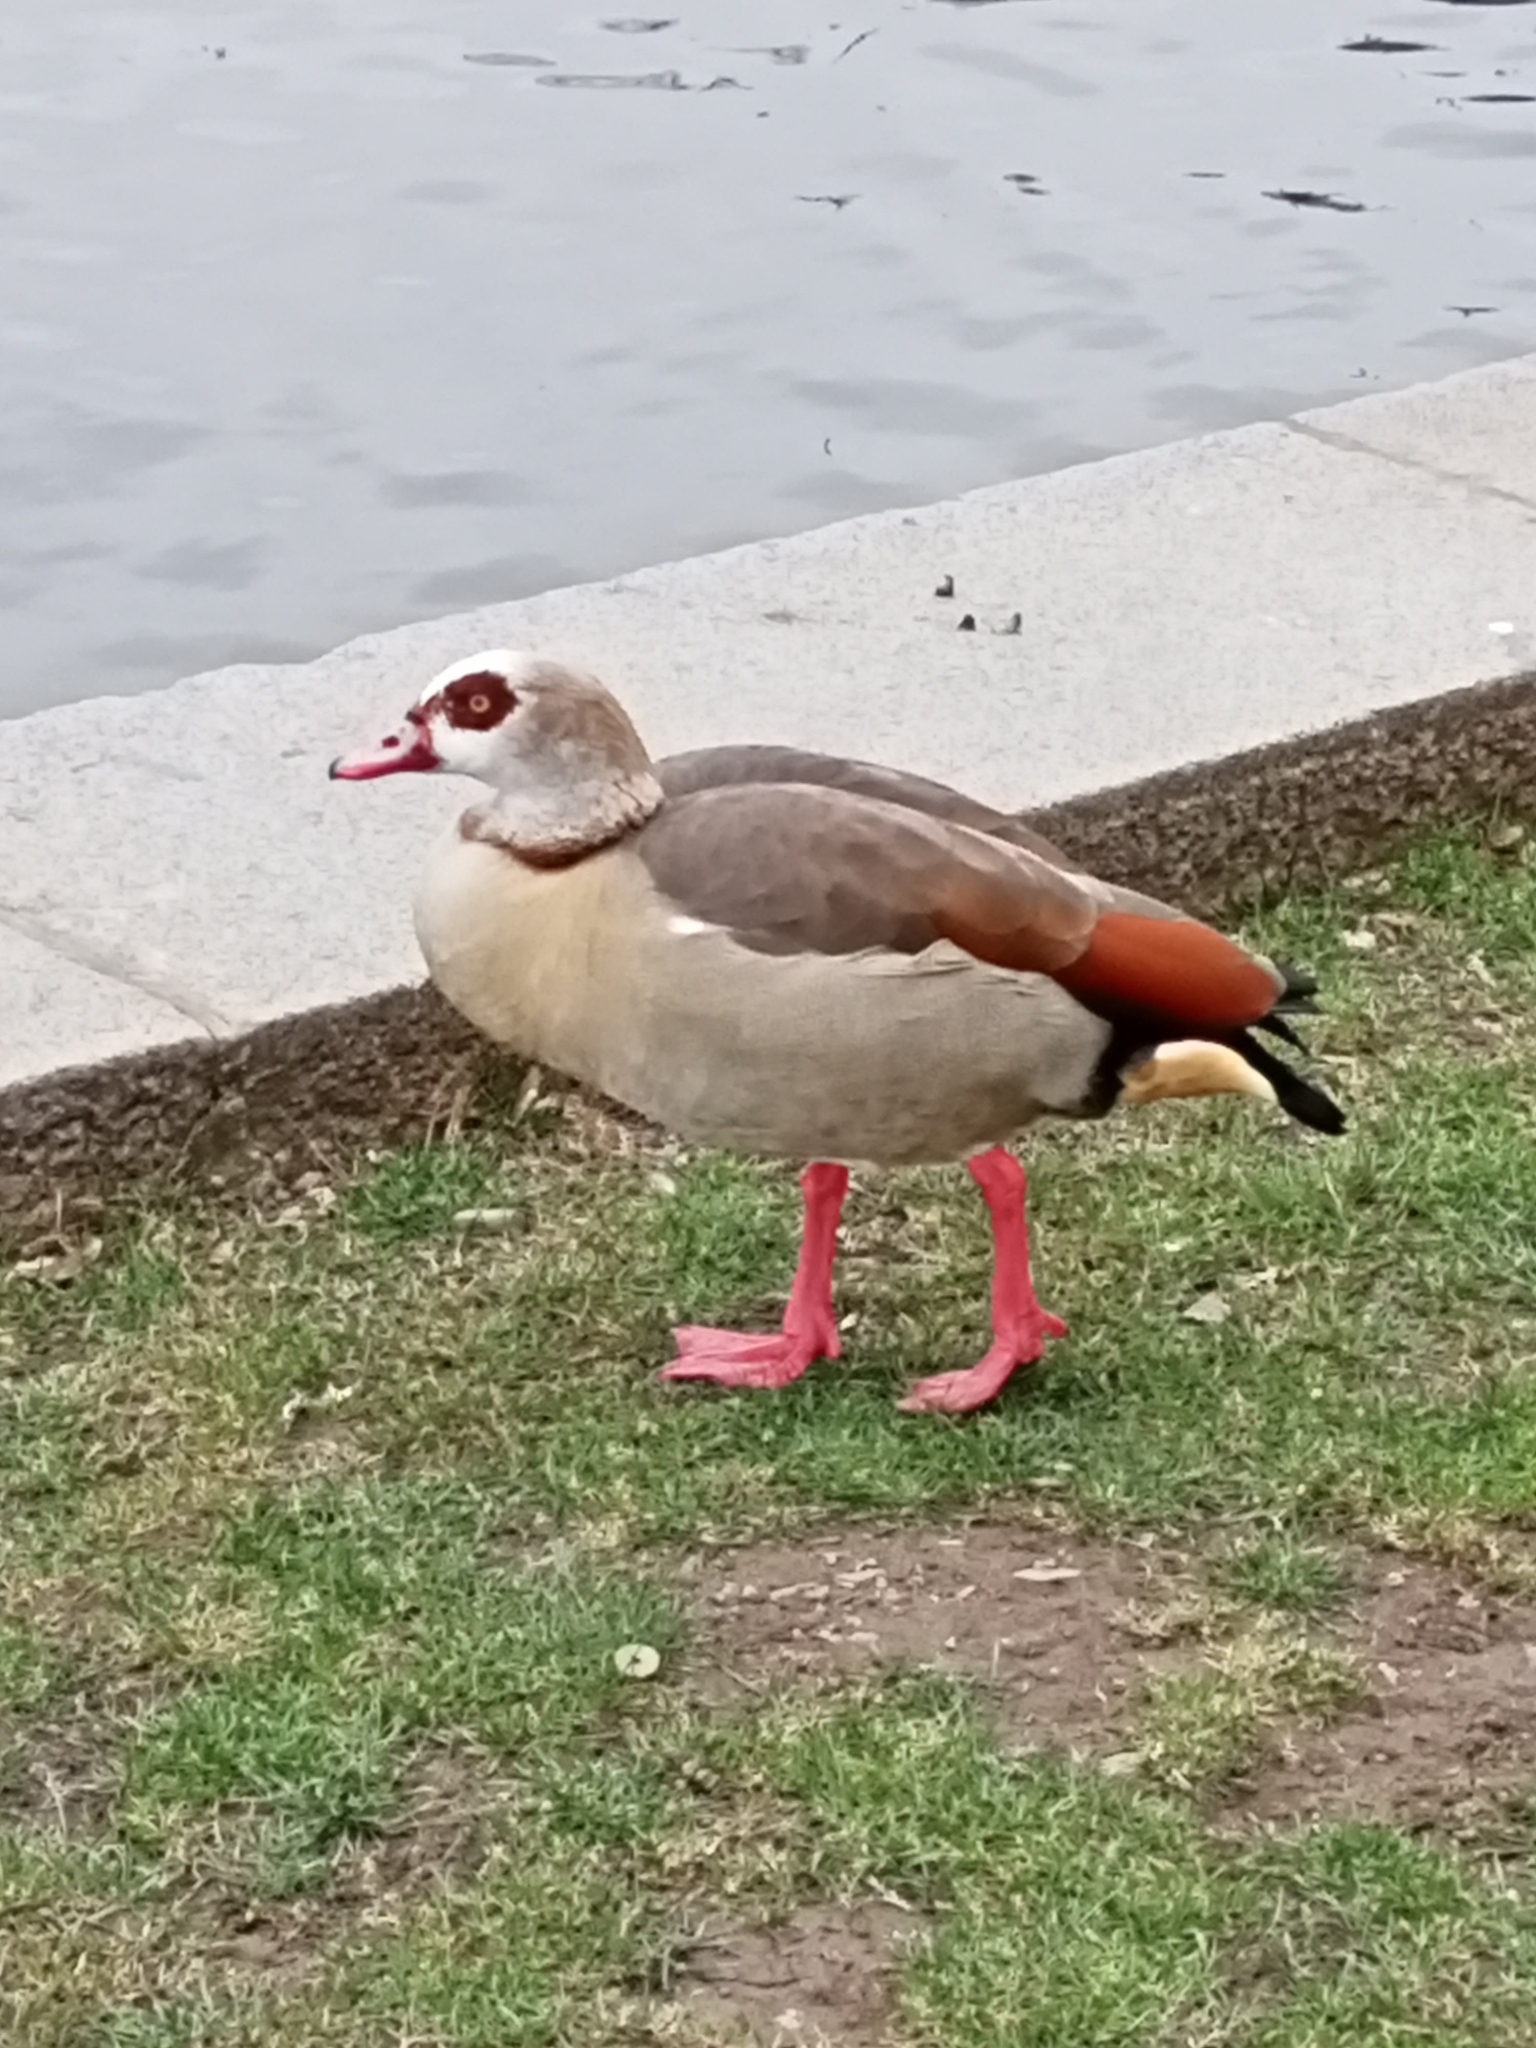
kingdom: Animalia
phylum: Chordata
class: Aves
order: Anseriformes
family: Anatidae
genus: Alopochen
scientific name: Alopochen aegyptiaca
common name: Egyptian goose
